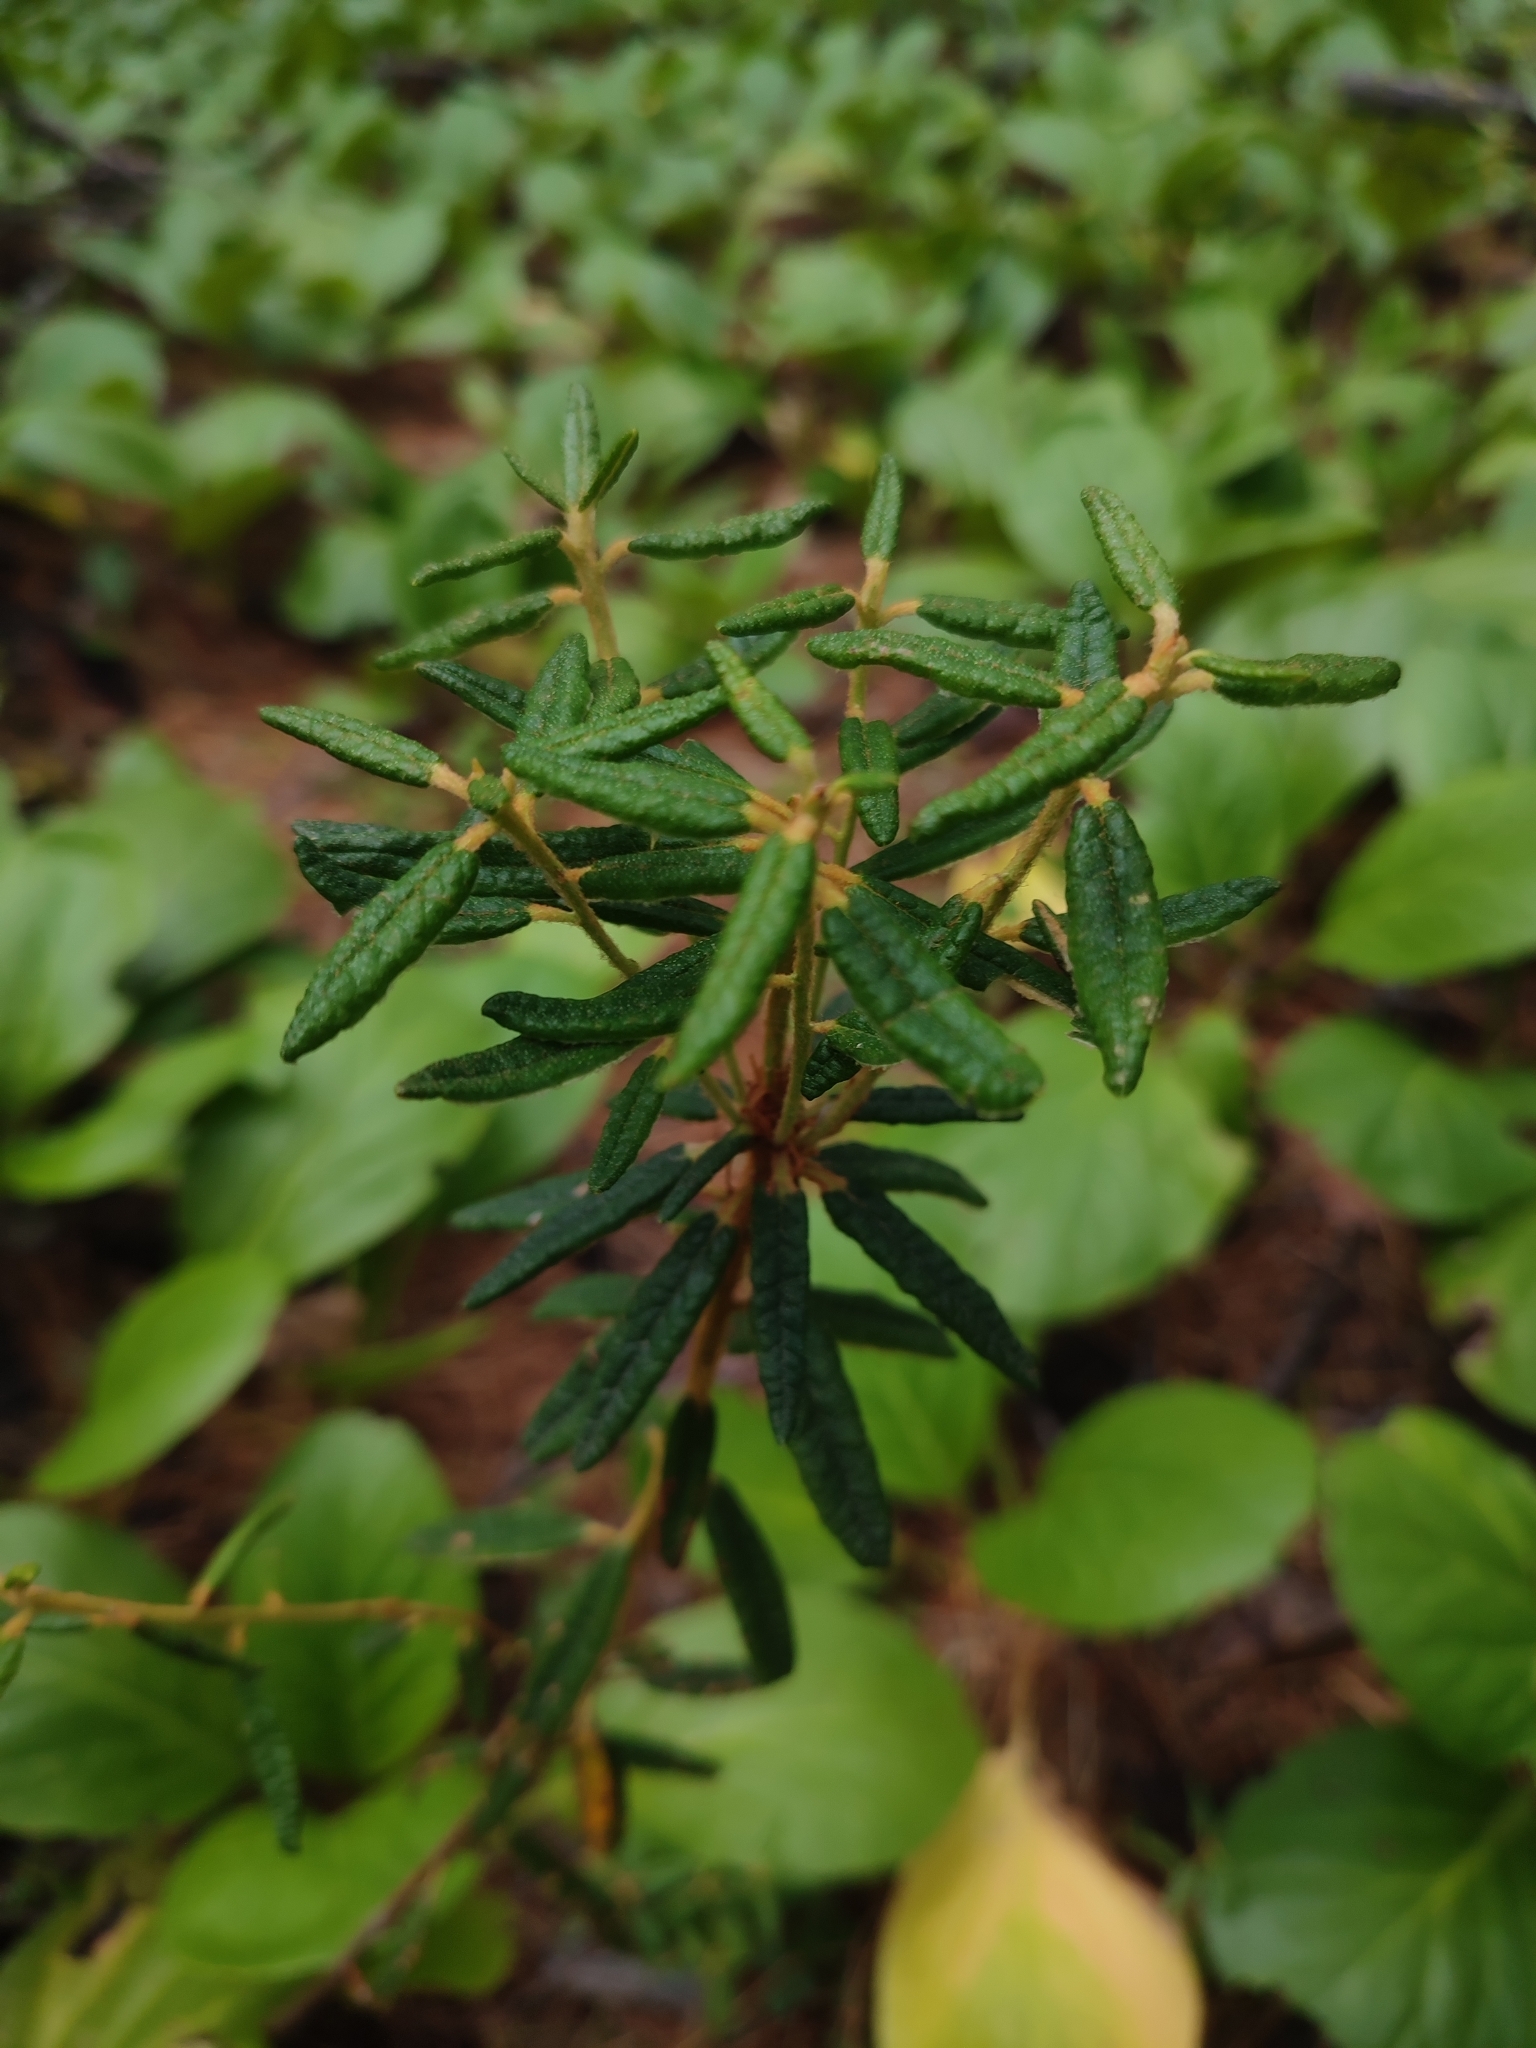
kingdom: Plantae
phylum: Tracheophyta
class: Magnoliopsida
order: Ericales
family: Ericaceae
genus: Rhododendron
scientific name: Rhododendron tomentosum
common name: Marsh labrador tea
